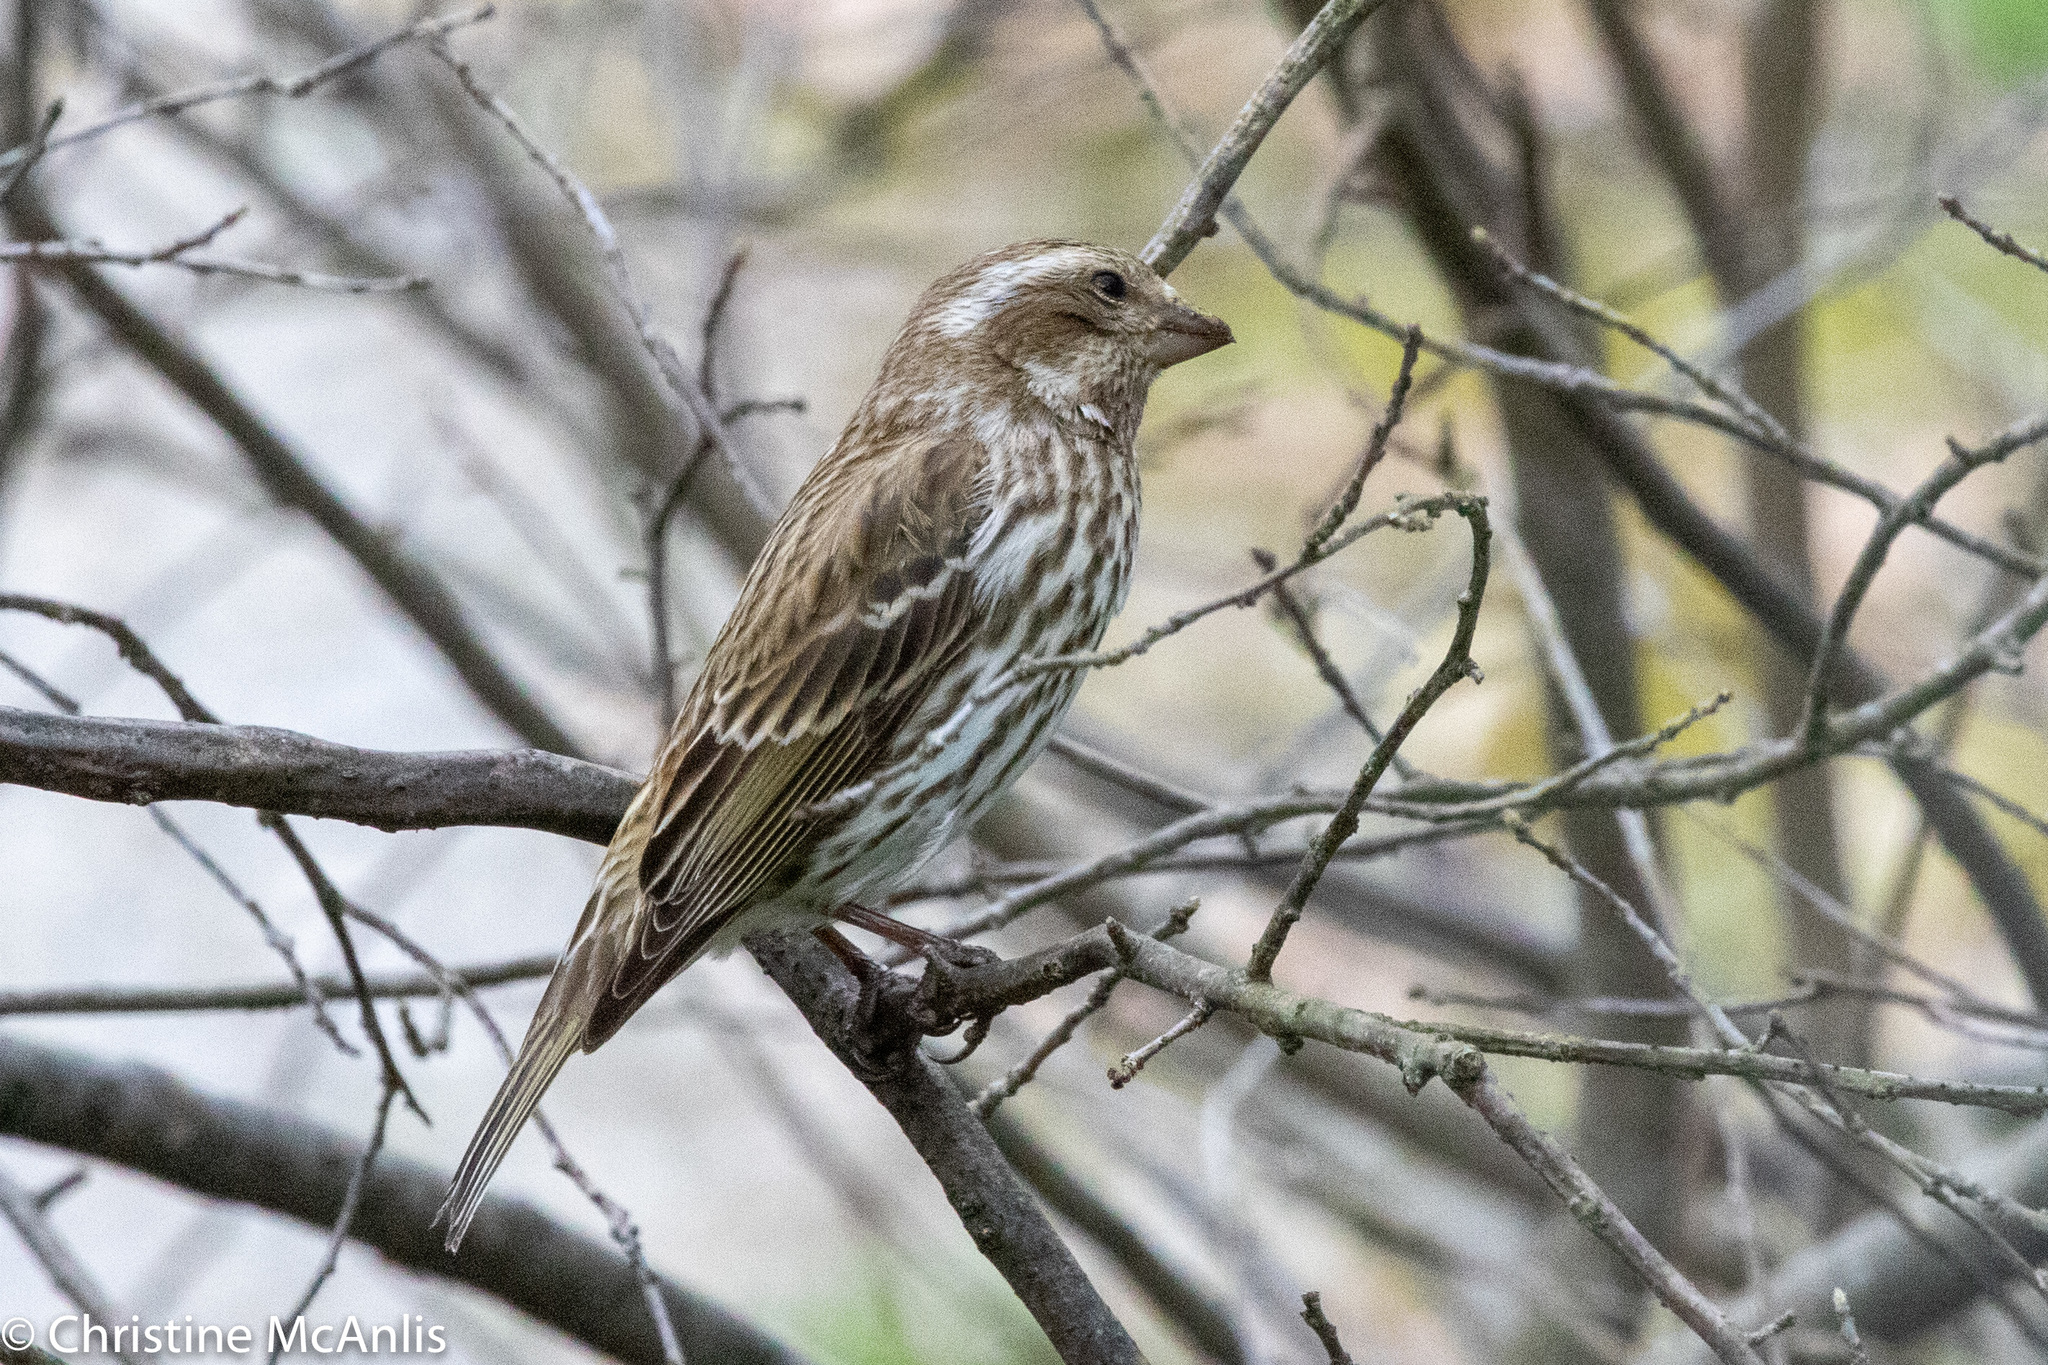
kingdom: Animalia
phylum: Chordata
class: Aves
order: Passeriformes
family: Fringillidae
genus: Haemorhous
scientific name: Haemorhous purpureus
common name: Purple finch
